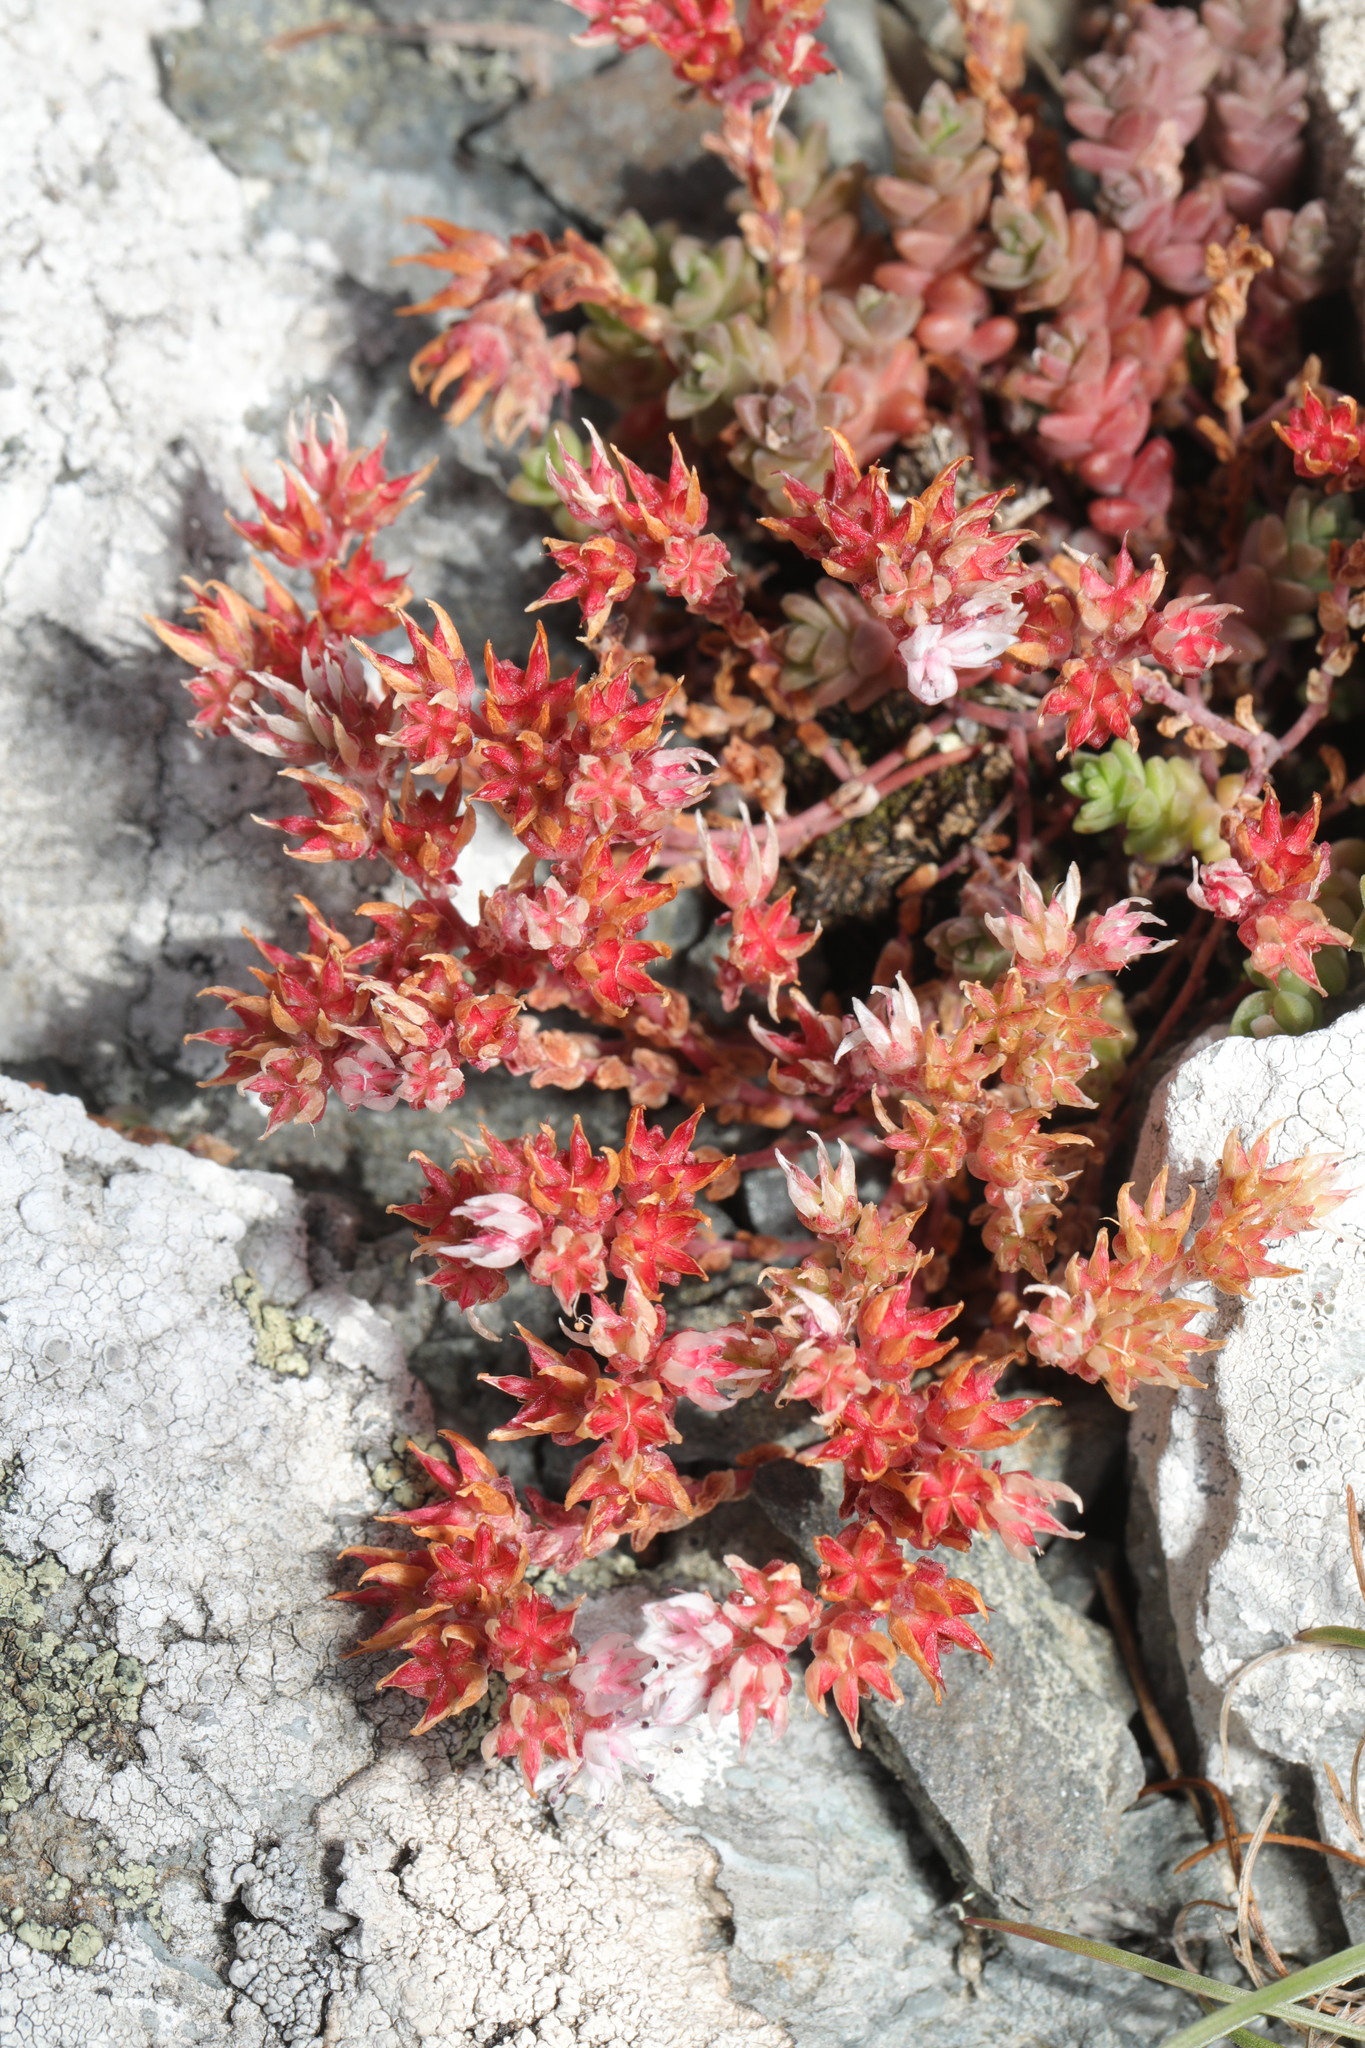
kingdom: Plantae
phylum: Tracheophyta
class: Magnoliopsida
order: Saxifragales
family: Crassulaceae
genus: Sedum
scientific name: Sedum anglicum
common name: English stonecrop
